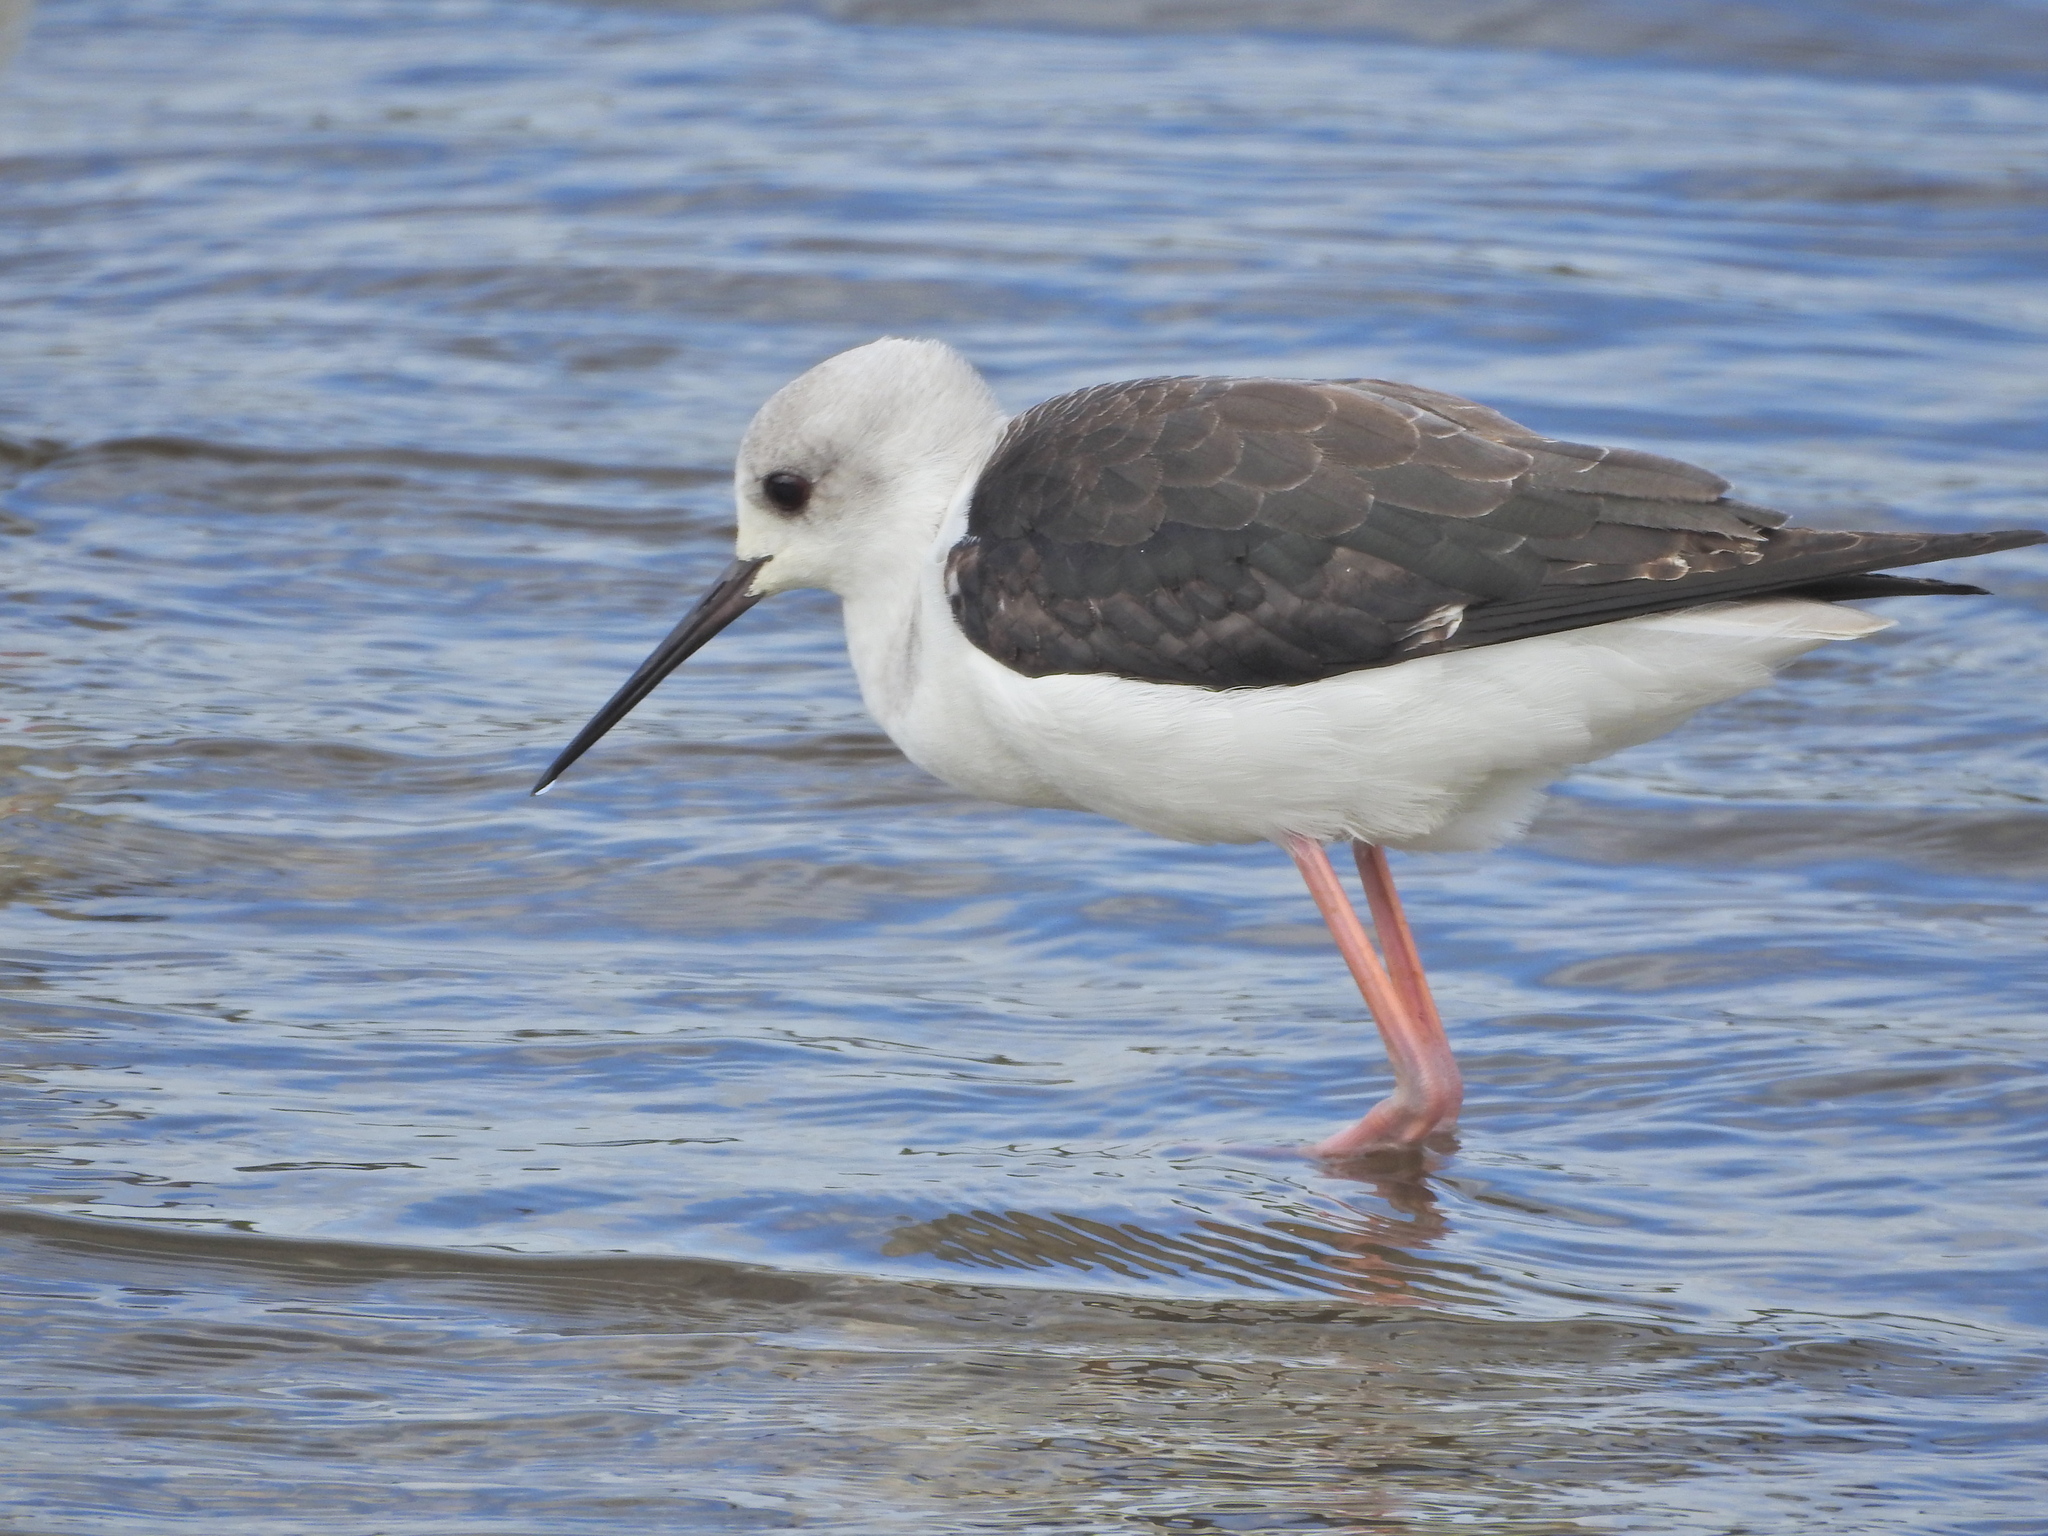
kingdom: Animalia
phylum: Chordata
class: Aves
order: Charadriiformes
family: Recurvirostridae
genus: Himantopus
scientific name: Himantopus leucocephalus
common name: White-headed stilt
